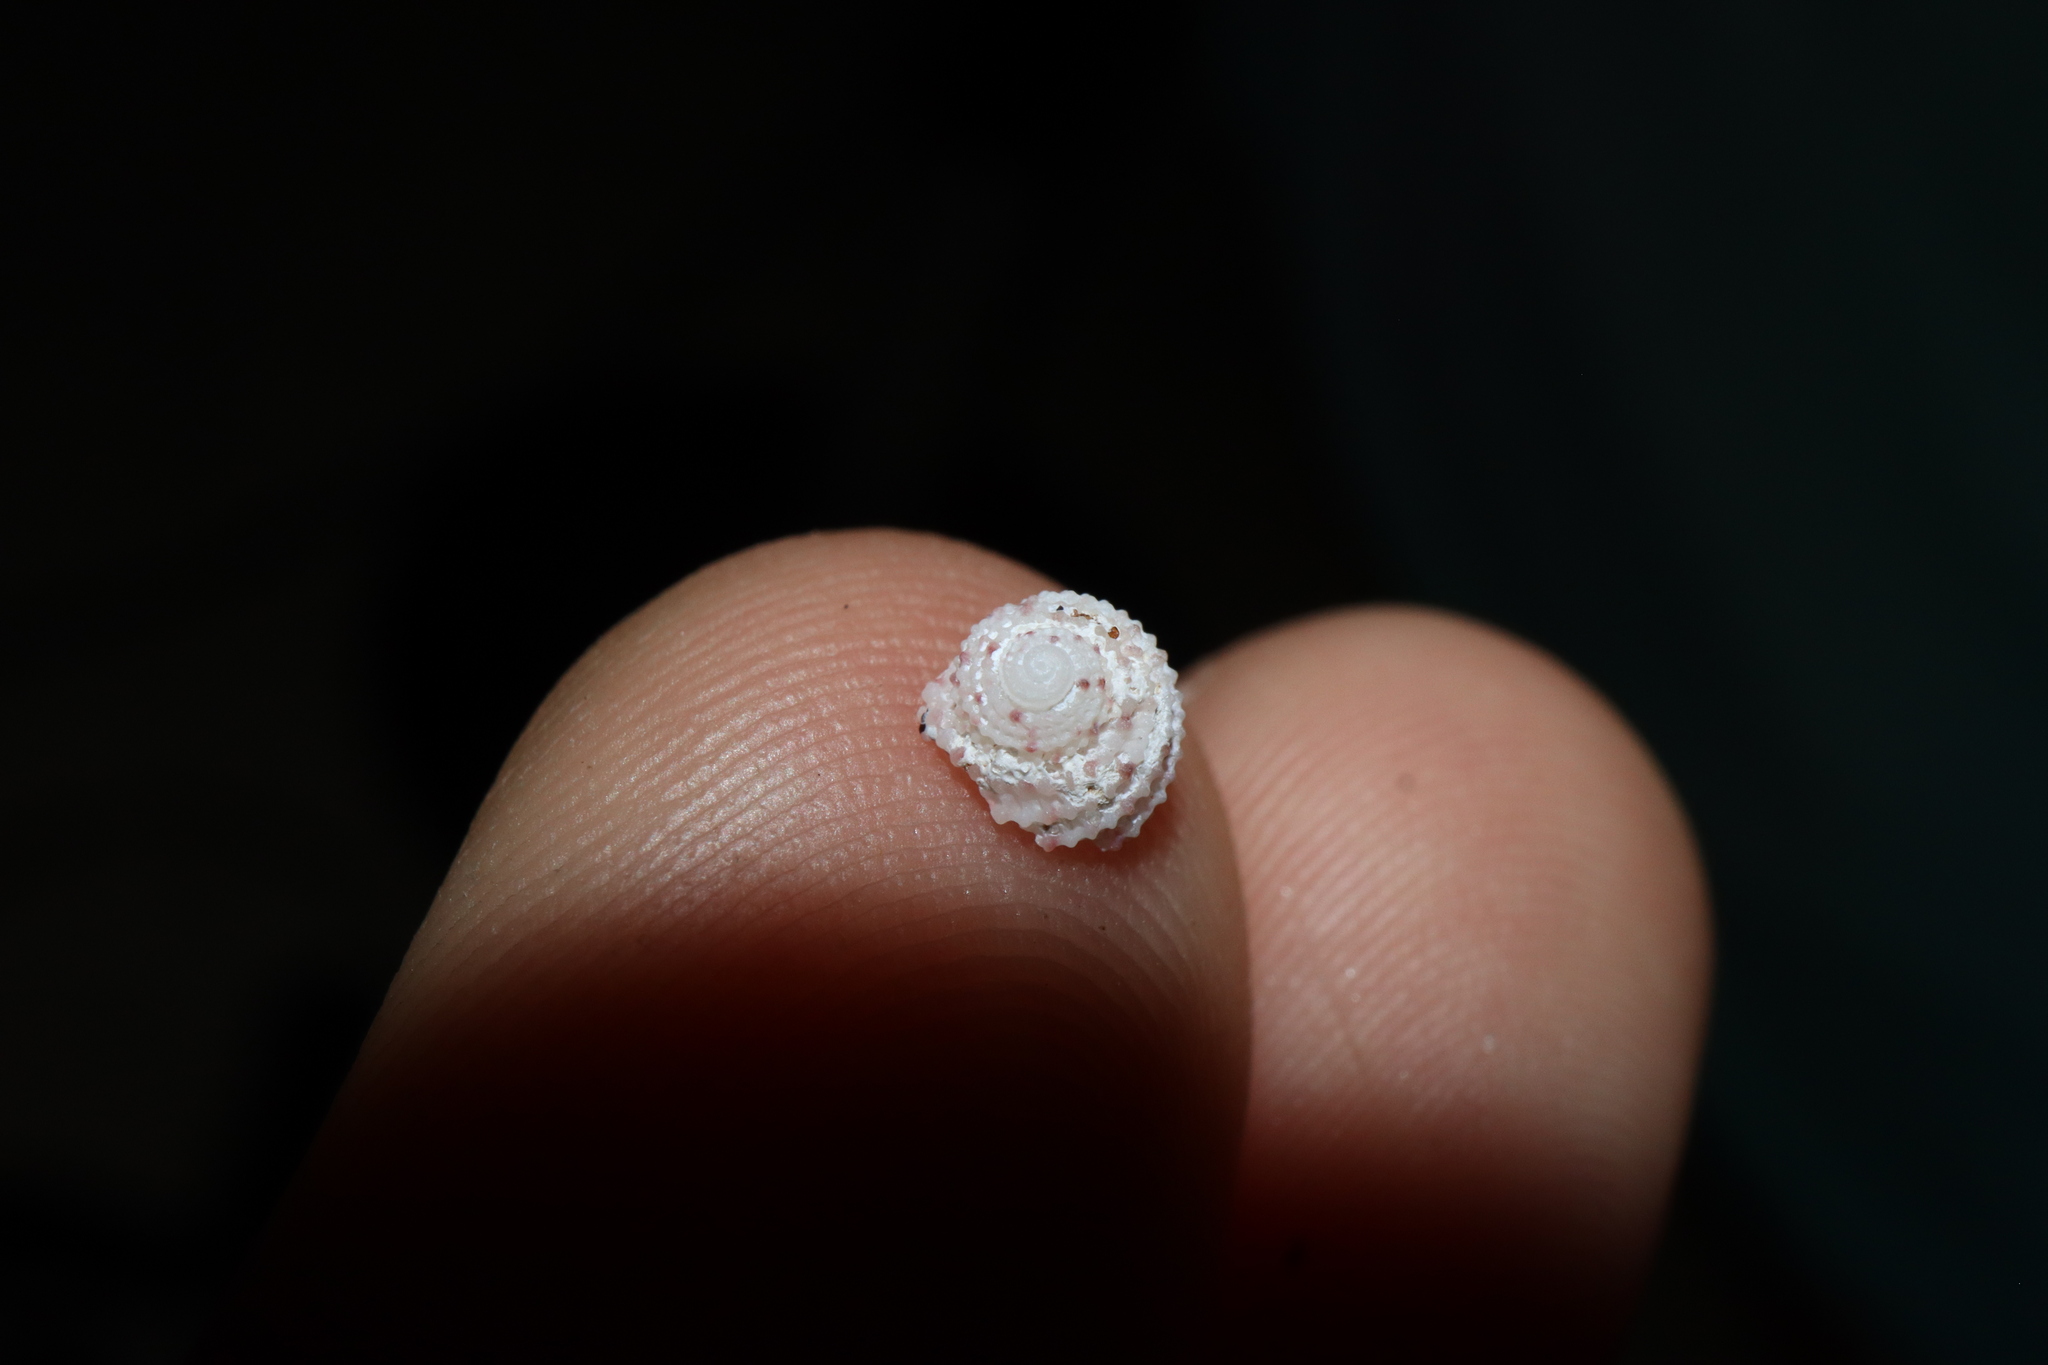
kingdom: Animalia
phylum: Mollusca
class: Gastropoda
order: Seguenziida
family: Chilodontaidae
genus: Vaceuchelus
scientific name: Vaceuchelus ampullus
